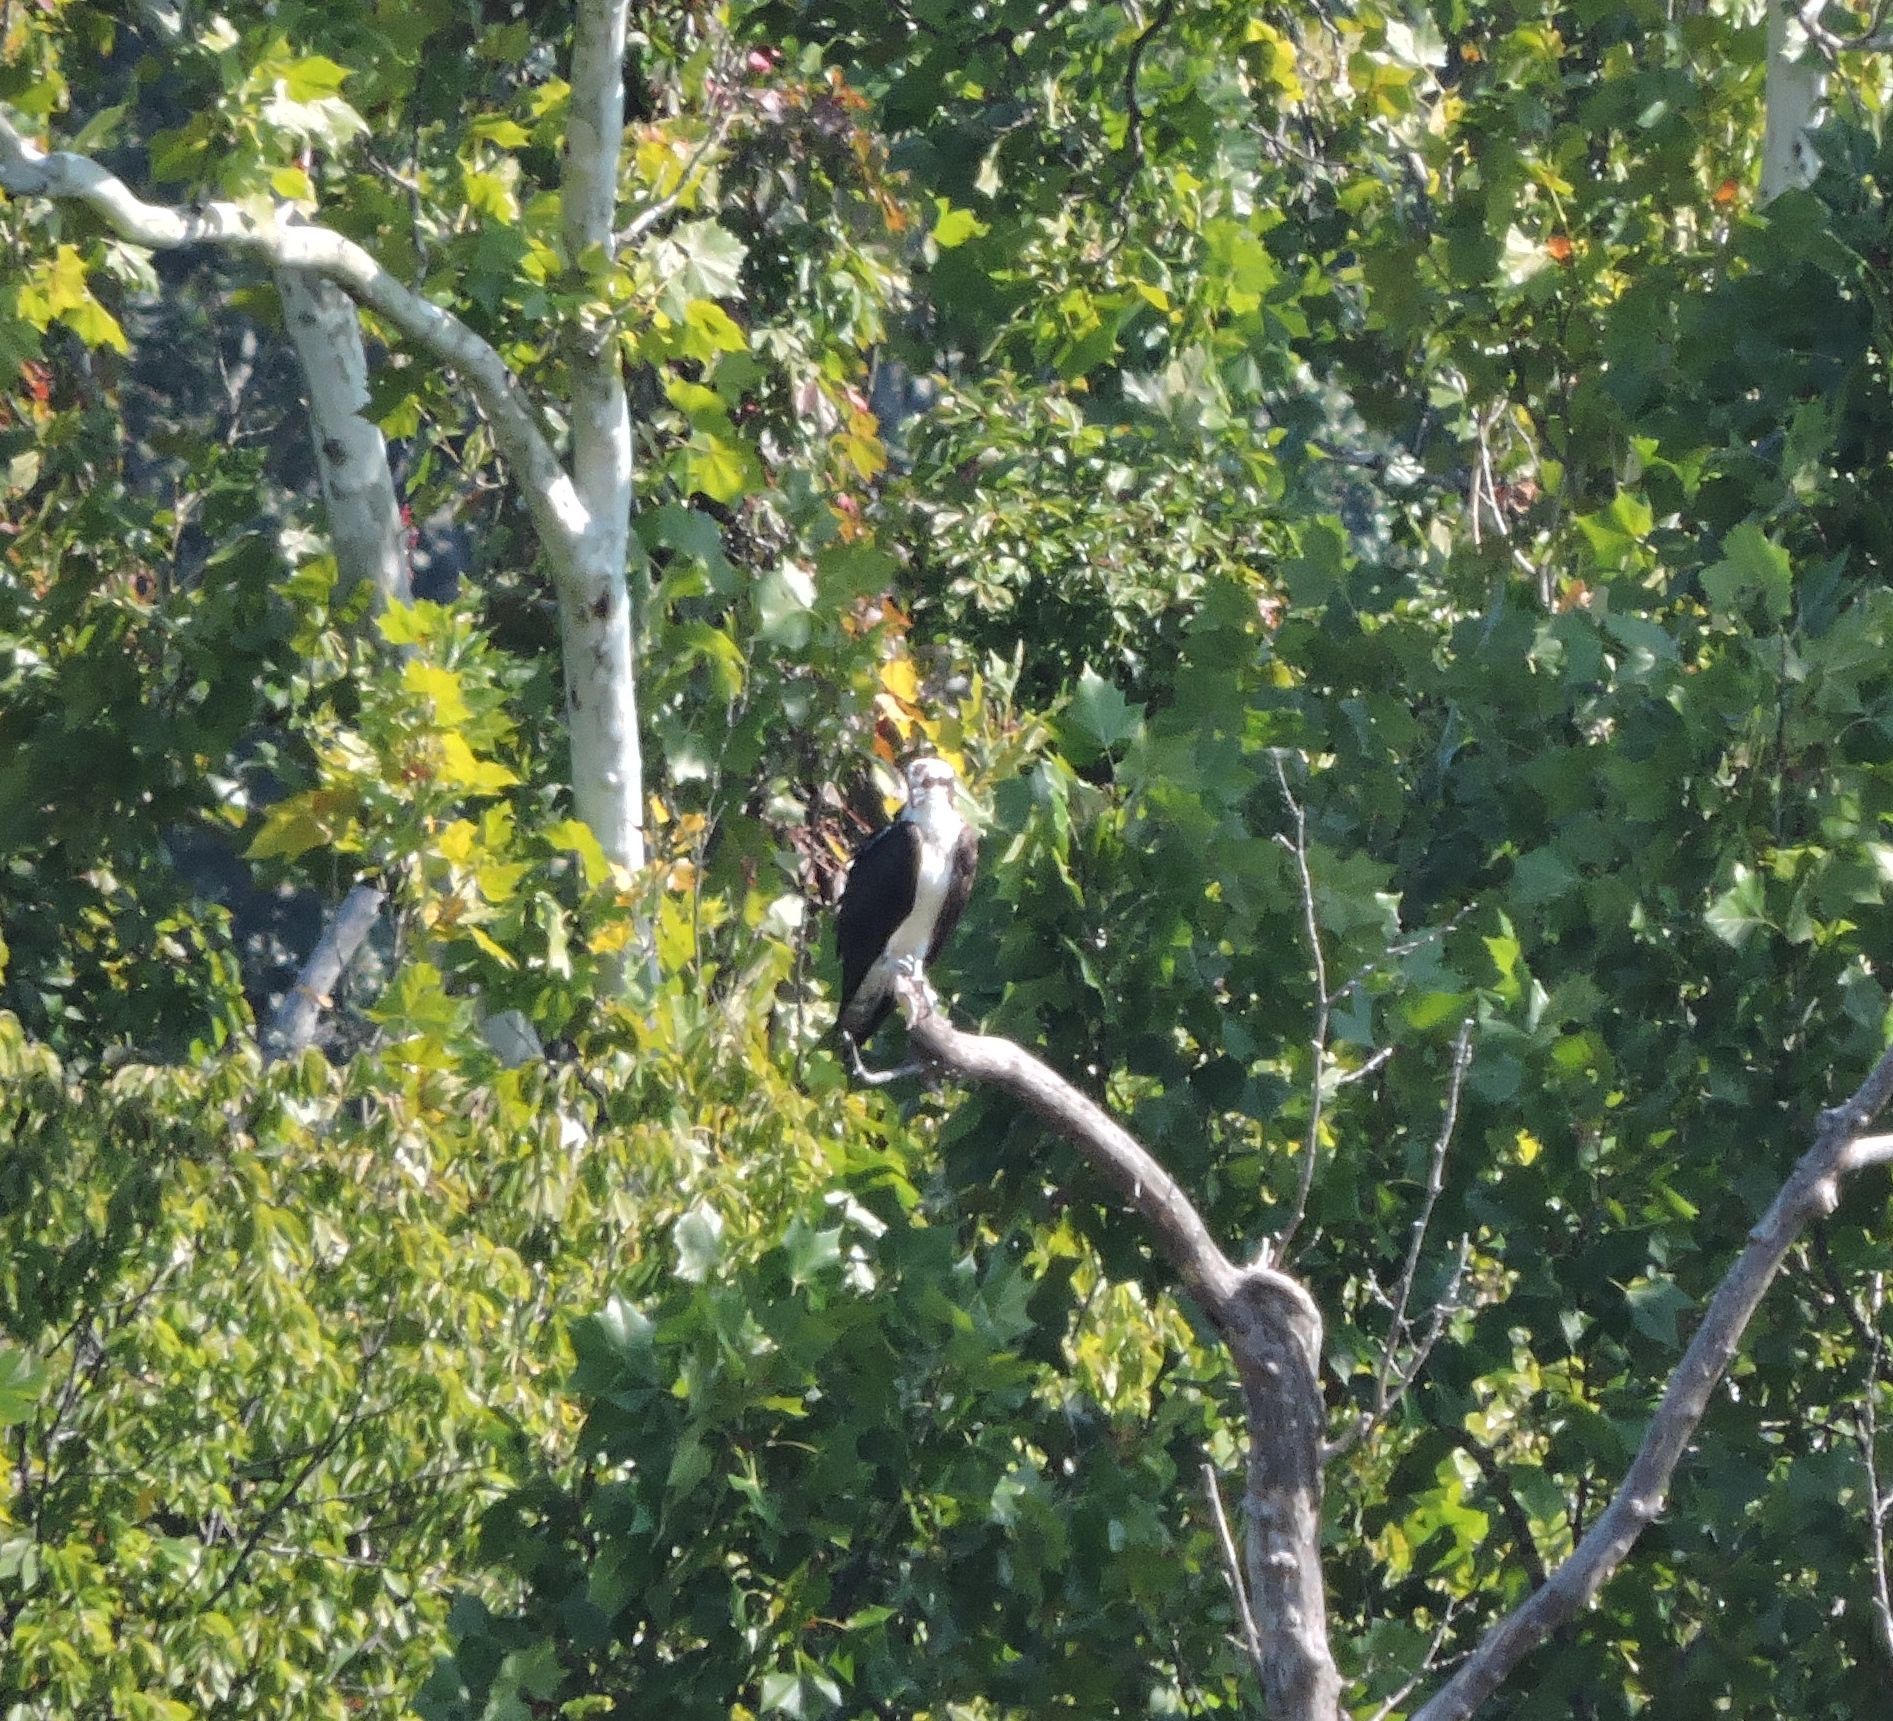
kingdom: Animalia
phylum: Chordata
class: Aves
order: Accipitriformes
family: Pandionidae
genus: Pandion
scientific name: Pandion haliaetus
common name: Osprey
